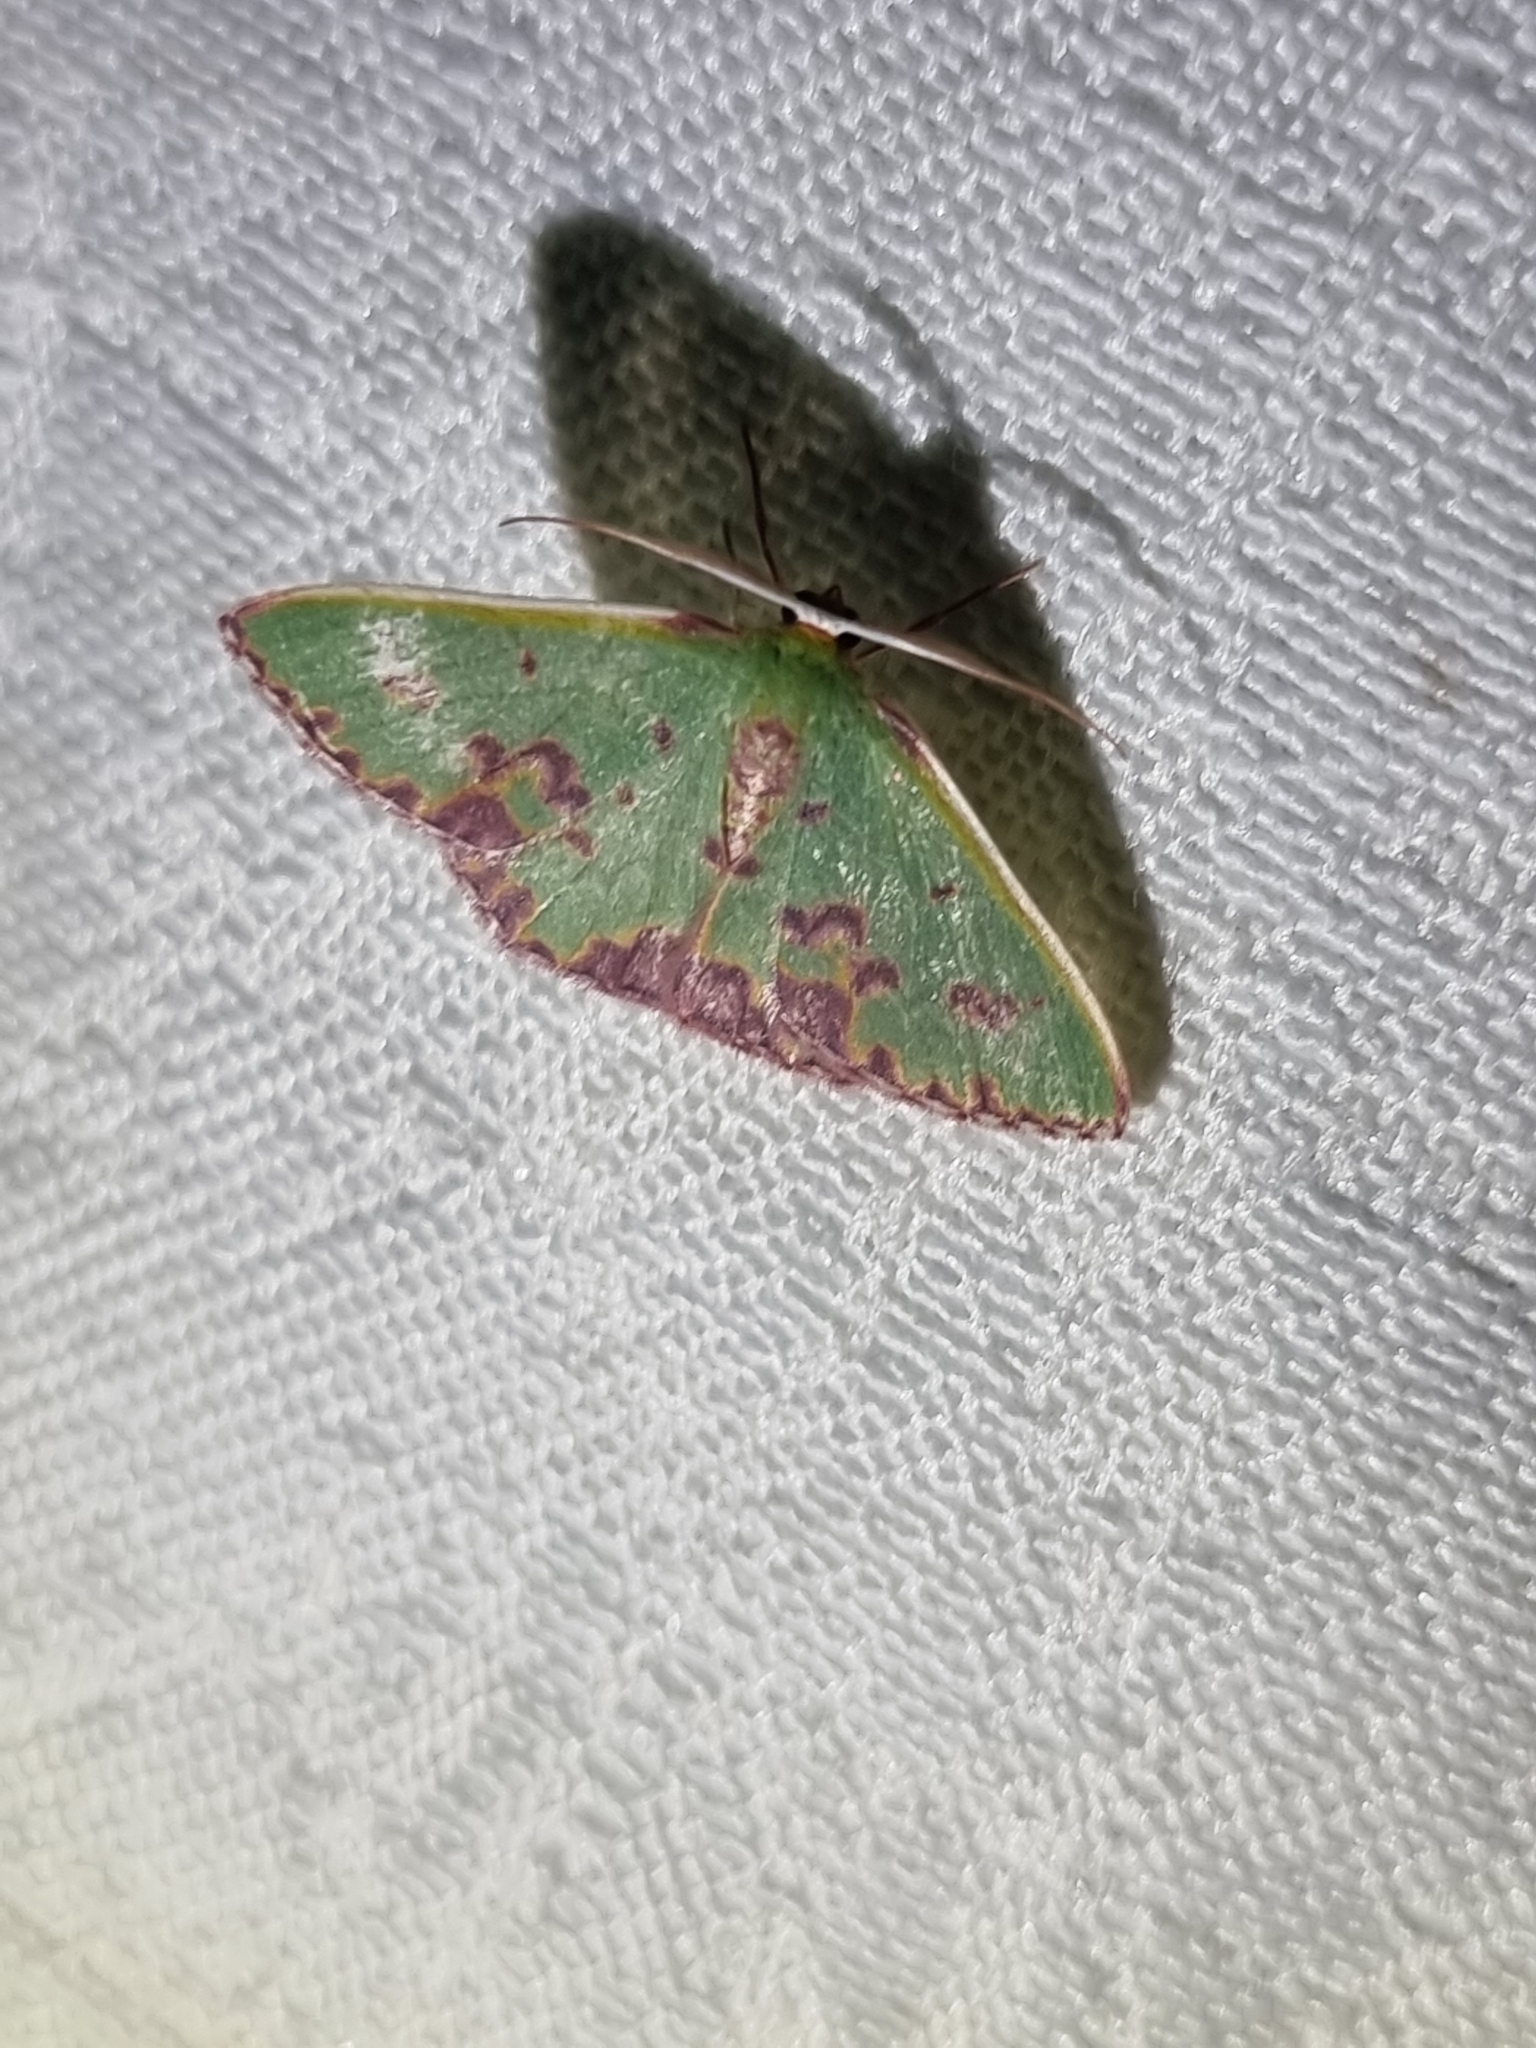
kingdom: Animalia
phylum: Arthropoda
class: Insecta
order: Lepidoptera
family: Geometridae
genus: Prasinocyma
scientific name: Prasinocyma rhodocosma
